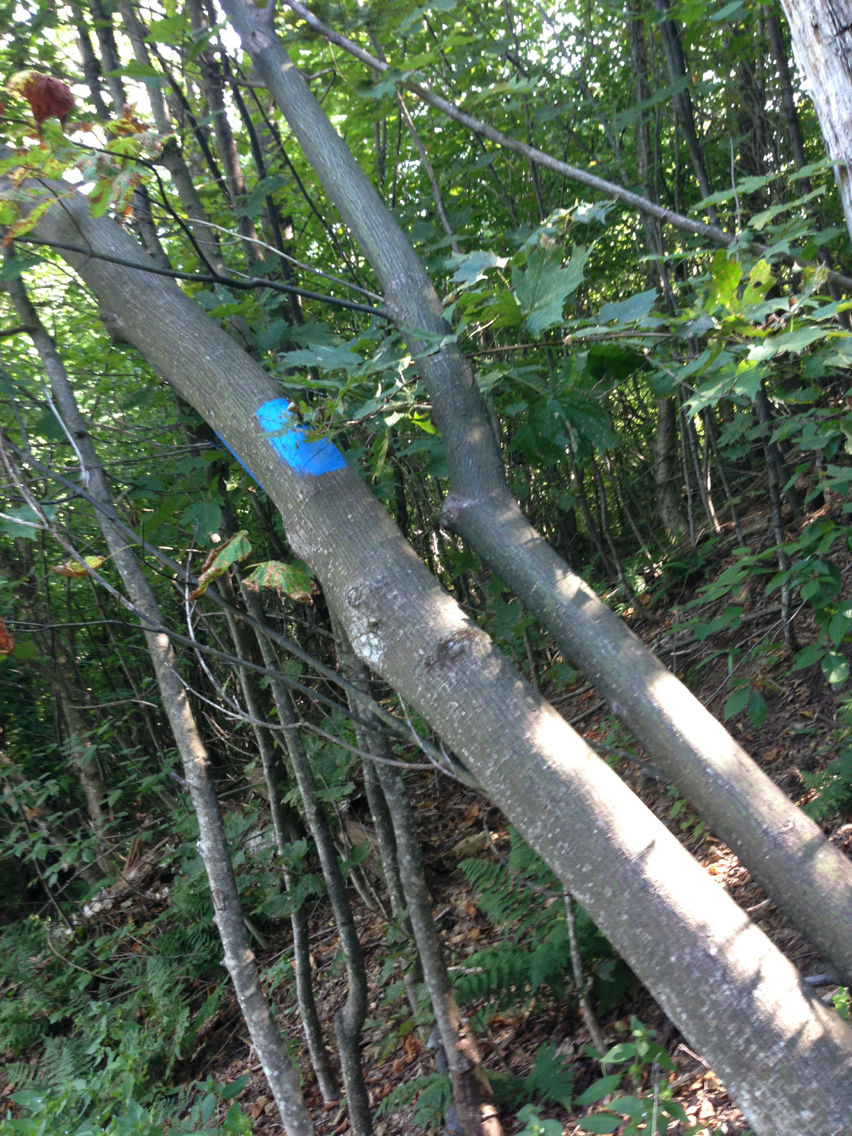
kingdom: Plantae
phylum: Tracheophyta
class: Magnoliopsida
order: Sapindales
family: Sapindaceae
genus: Acer
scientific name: Acer pensylvanicum
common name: Moosewood
